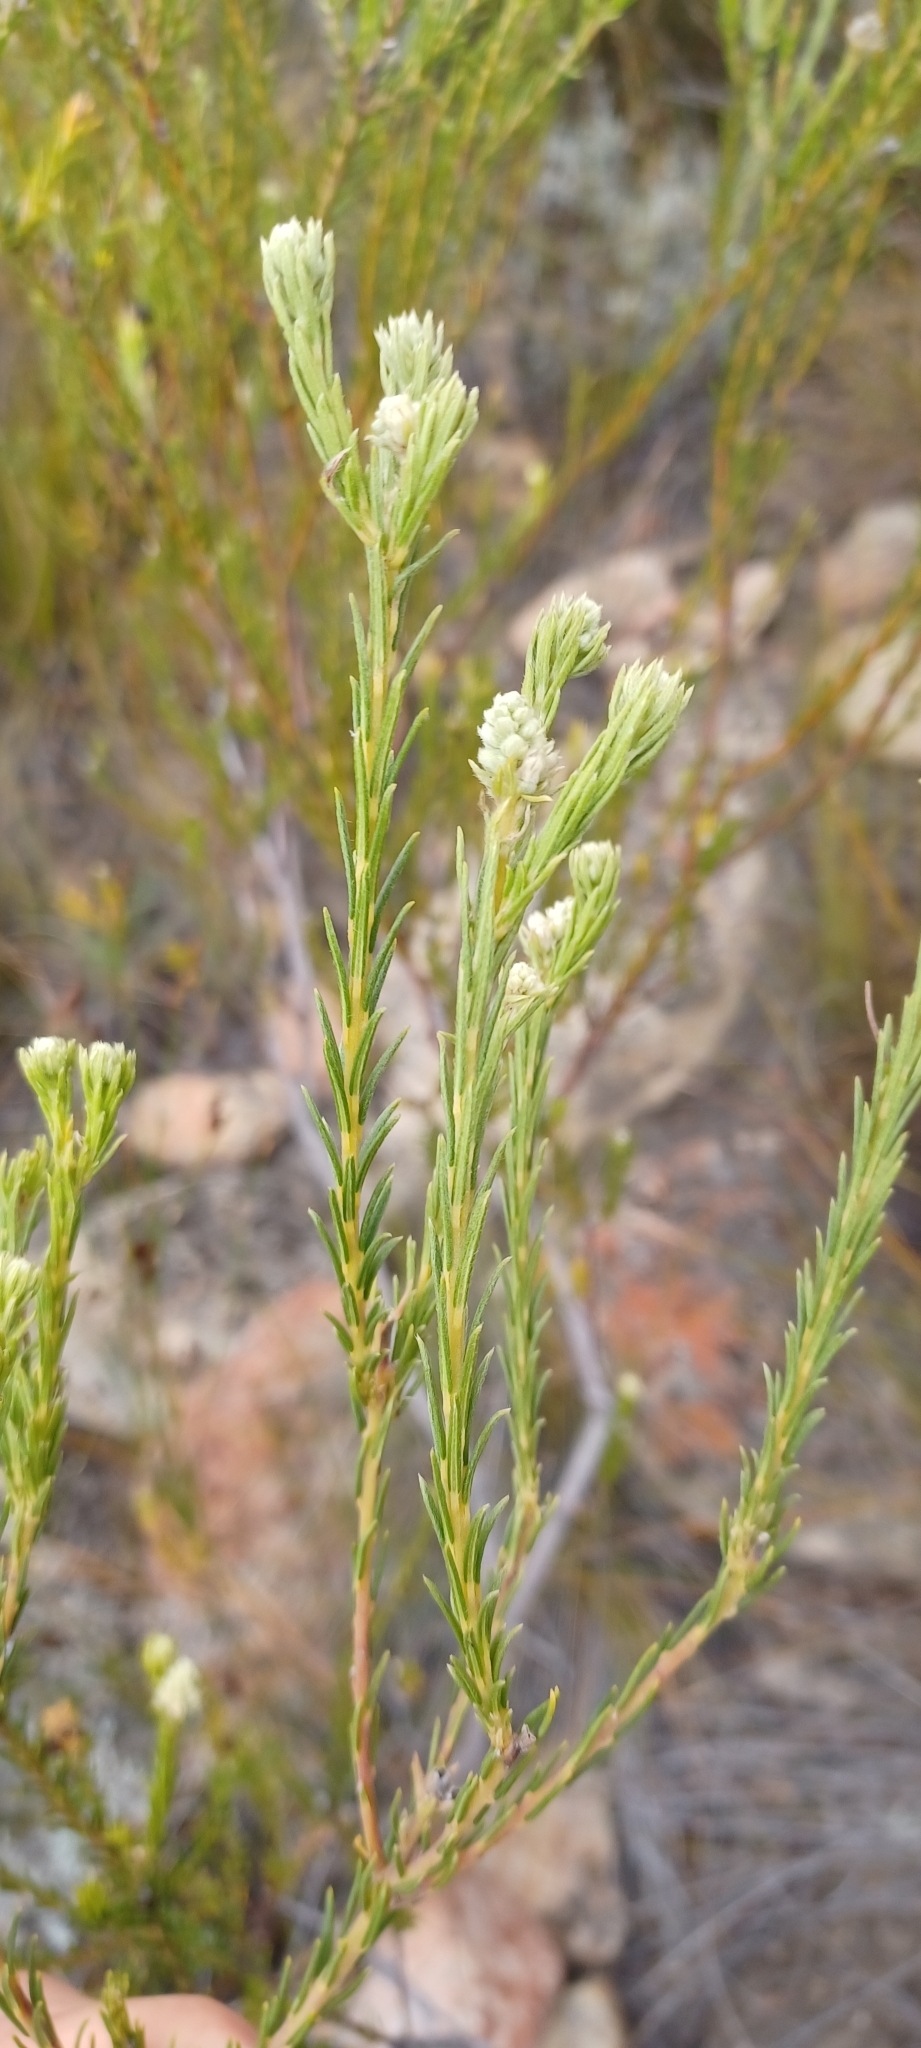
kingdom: Plantae
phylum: Tracheophyta
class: Magnoliopsida
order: Rosales
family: Rhamnaceae
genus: Phylica
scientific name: Phylica excelsa
